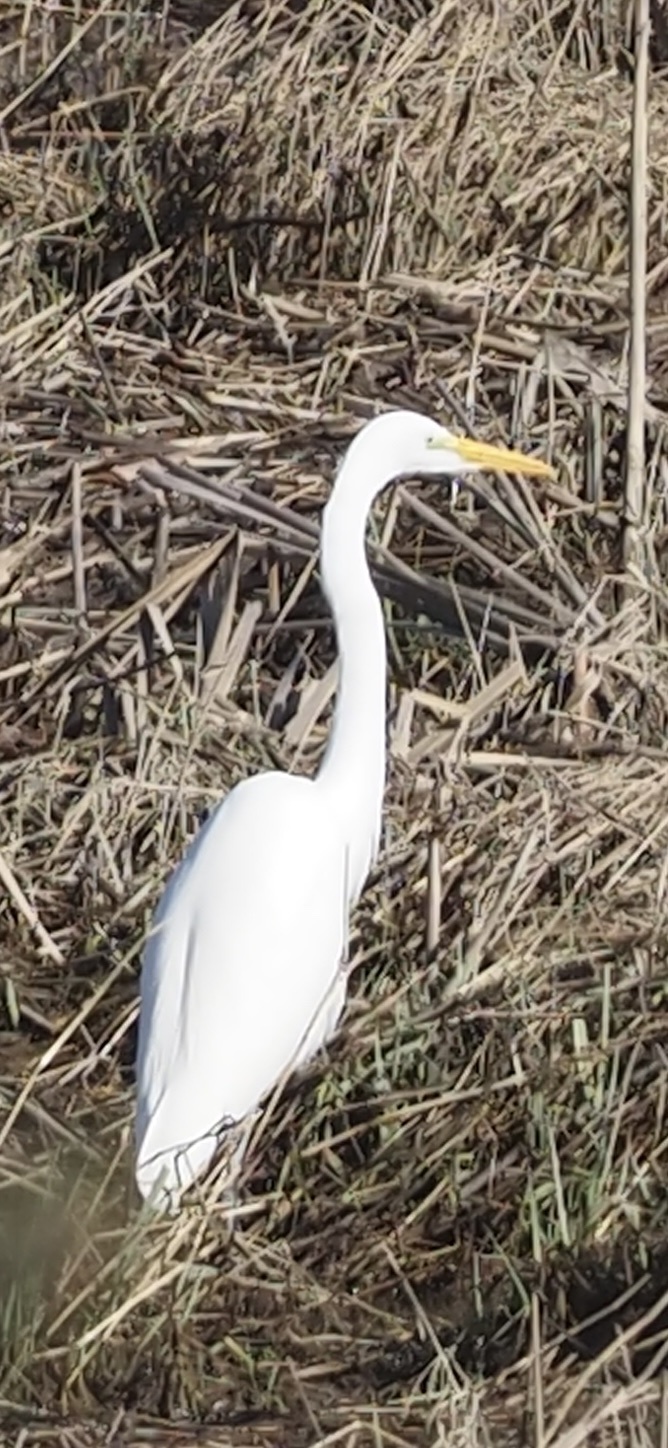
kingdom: Animalia
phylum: Chordata
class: Aves
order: Pelecaniformes
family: Ardeidae
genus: Ardea
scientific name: Ardea alba
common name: Great egret
